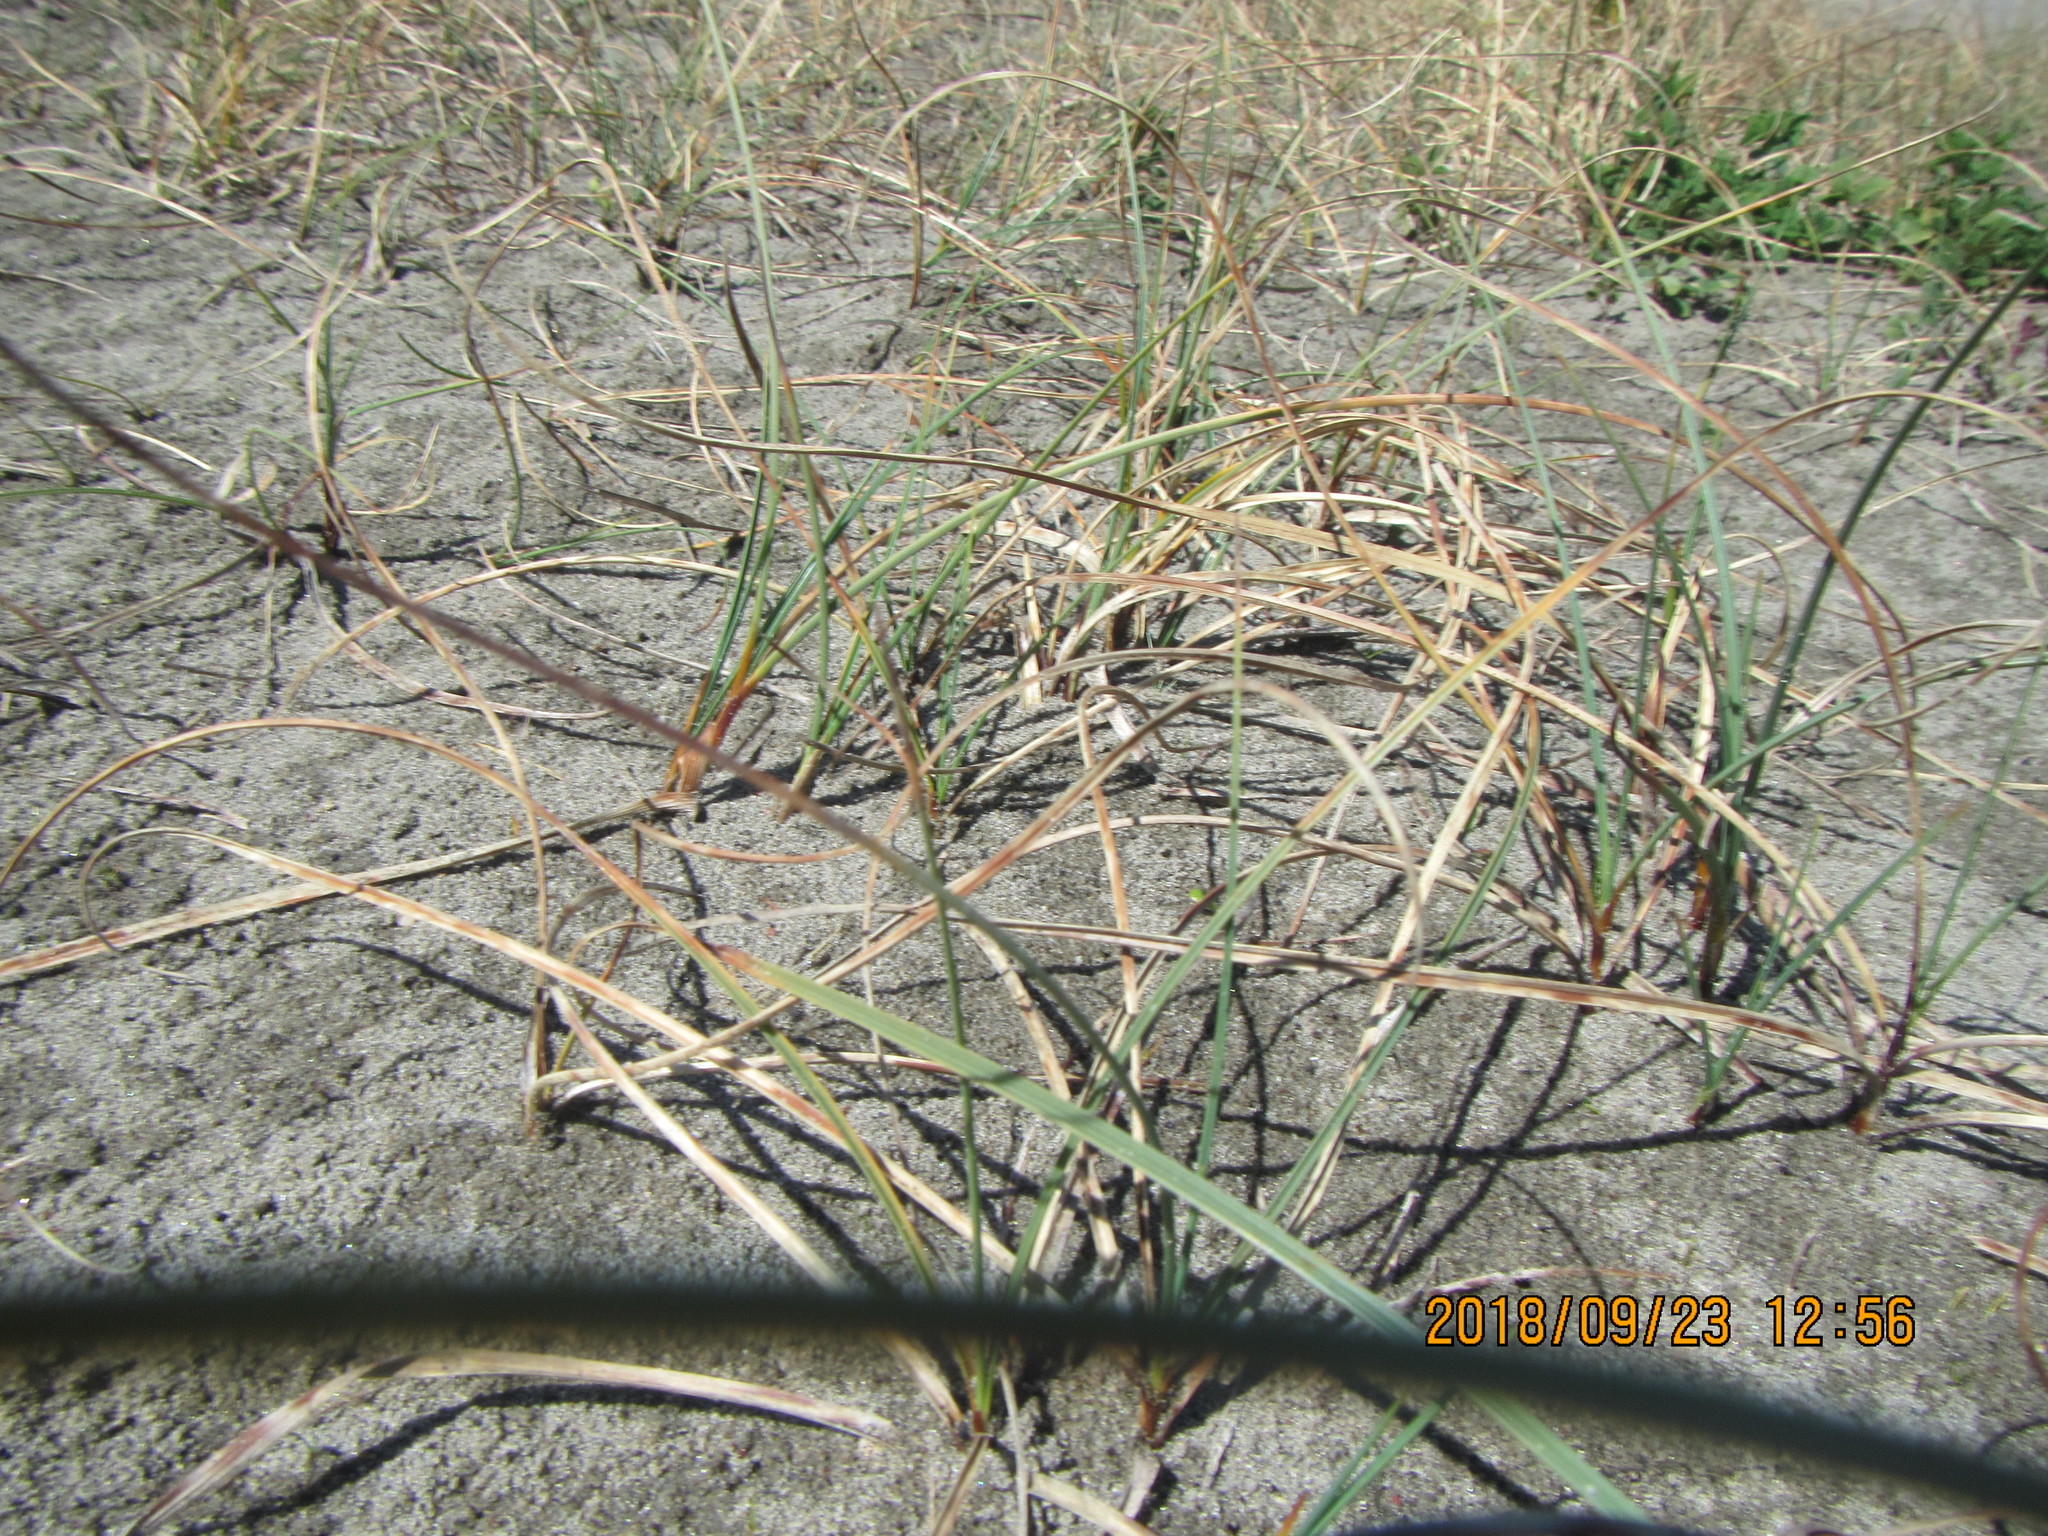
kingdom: Plantae
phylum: Tracheophyta
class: Liliopsida
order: Poales
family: Cyperaceae
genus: Carex
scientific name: Carex pumila
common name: Dwarf sedge
